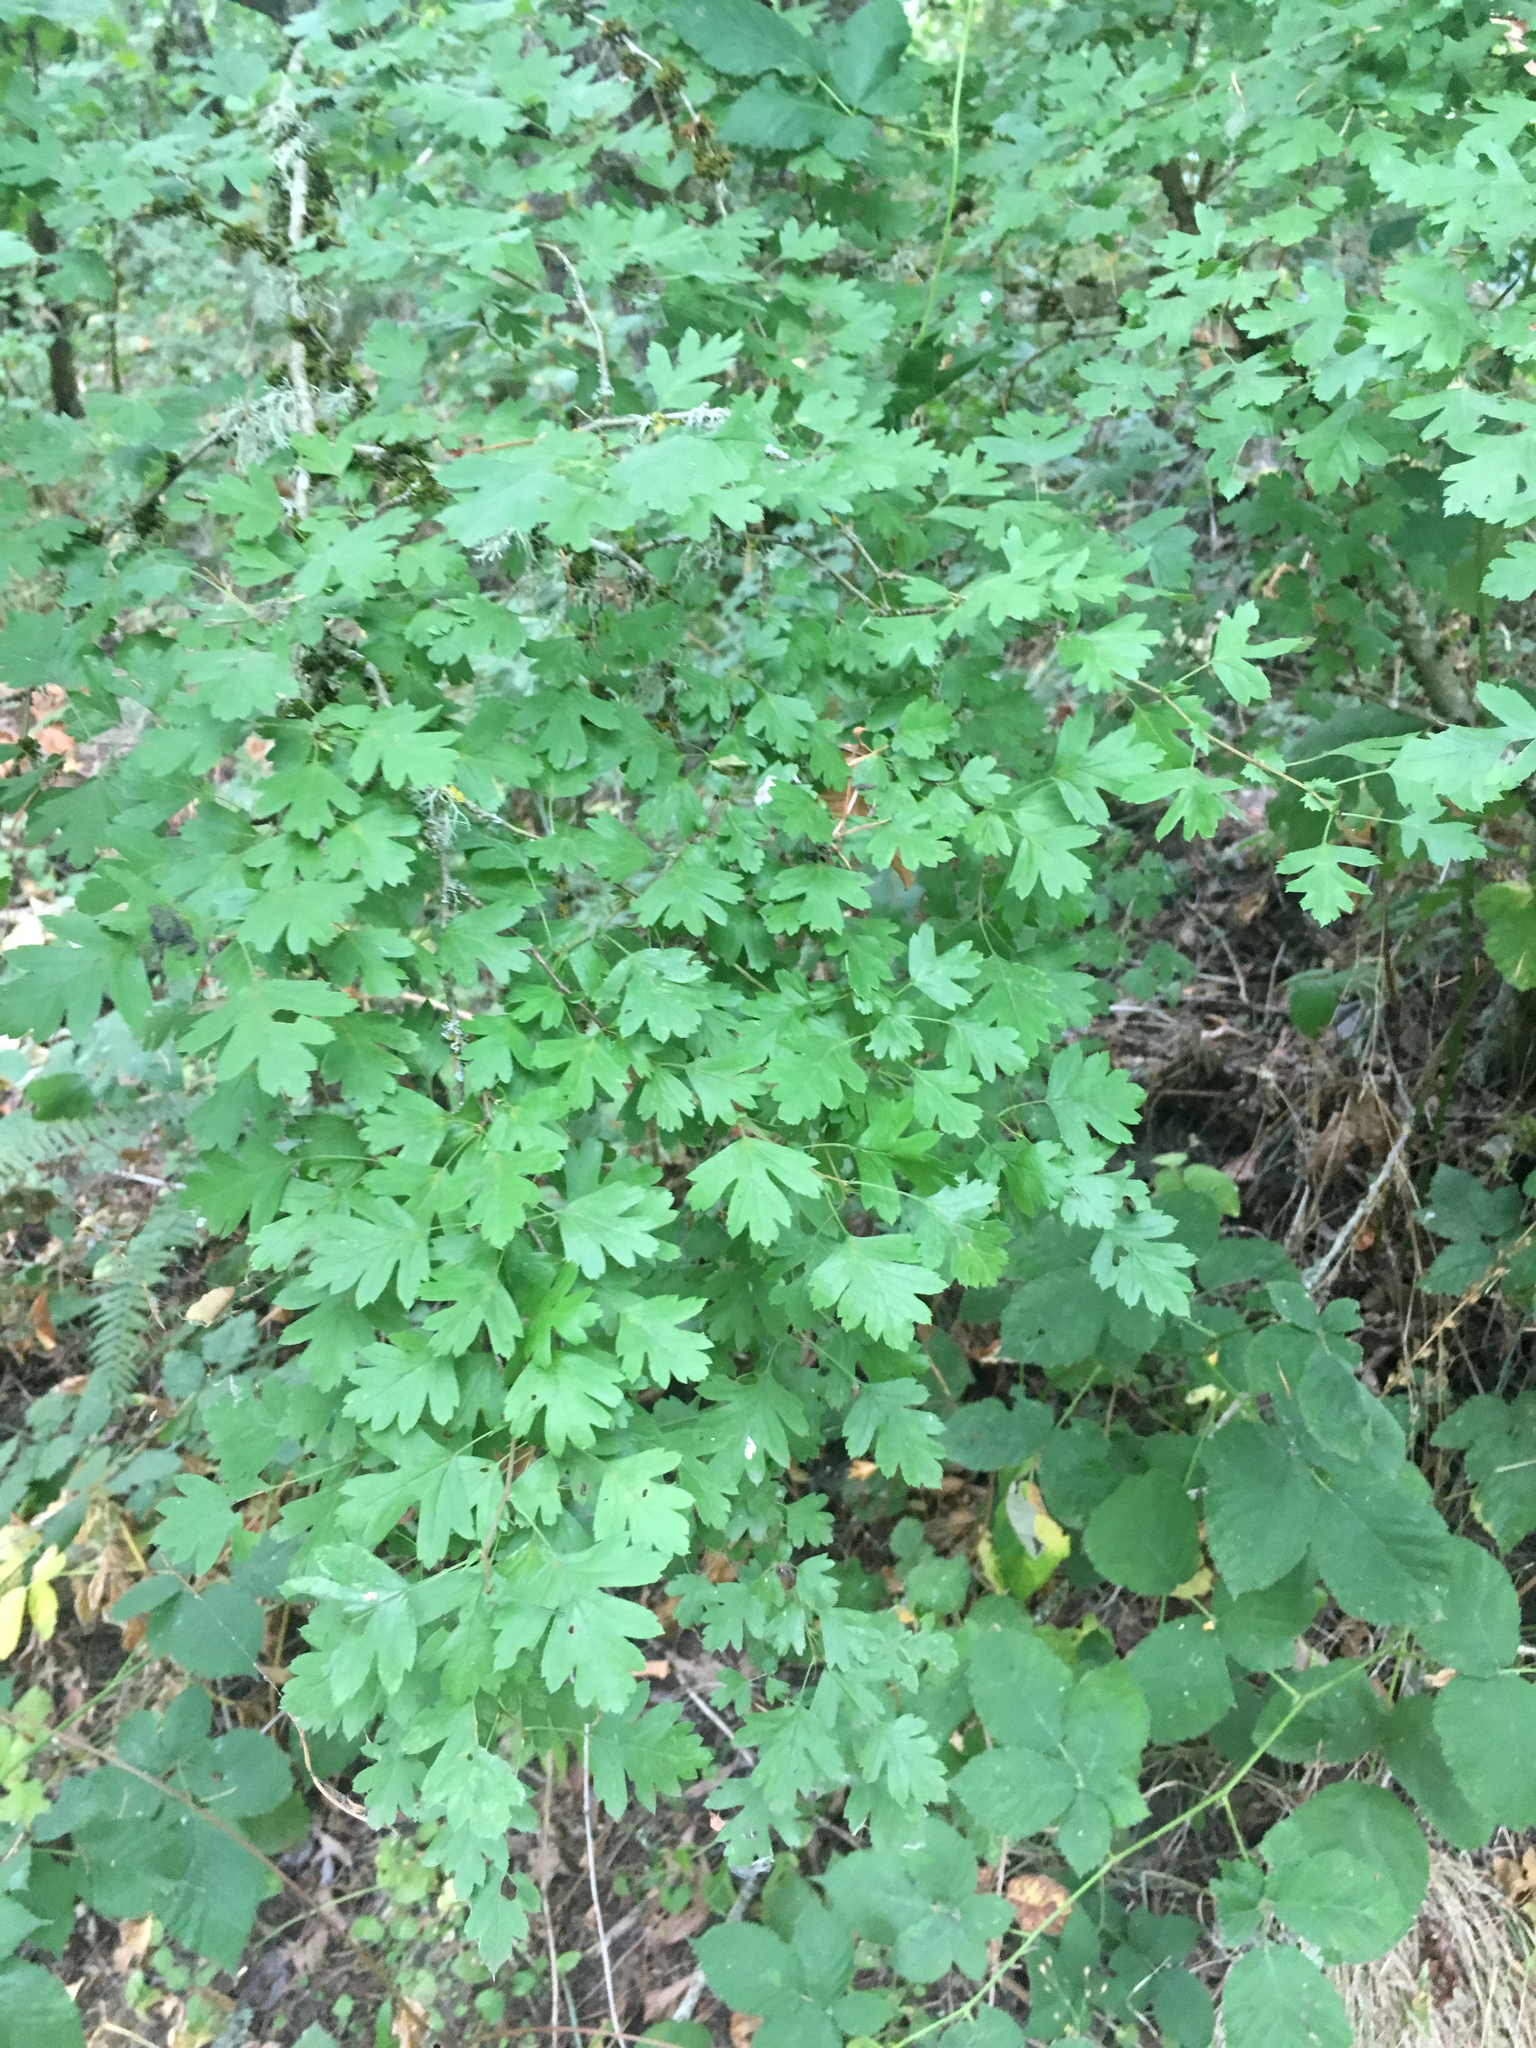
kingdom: Plantae
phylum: Tracheophyta
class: Magnoliopsida
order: Rosales
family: Rosaceae
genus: Crataegus
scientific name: Crataegus monogyna
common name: Hawthorn
